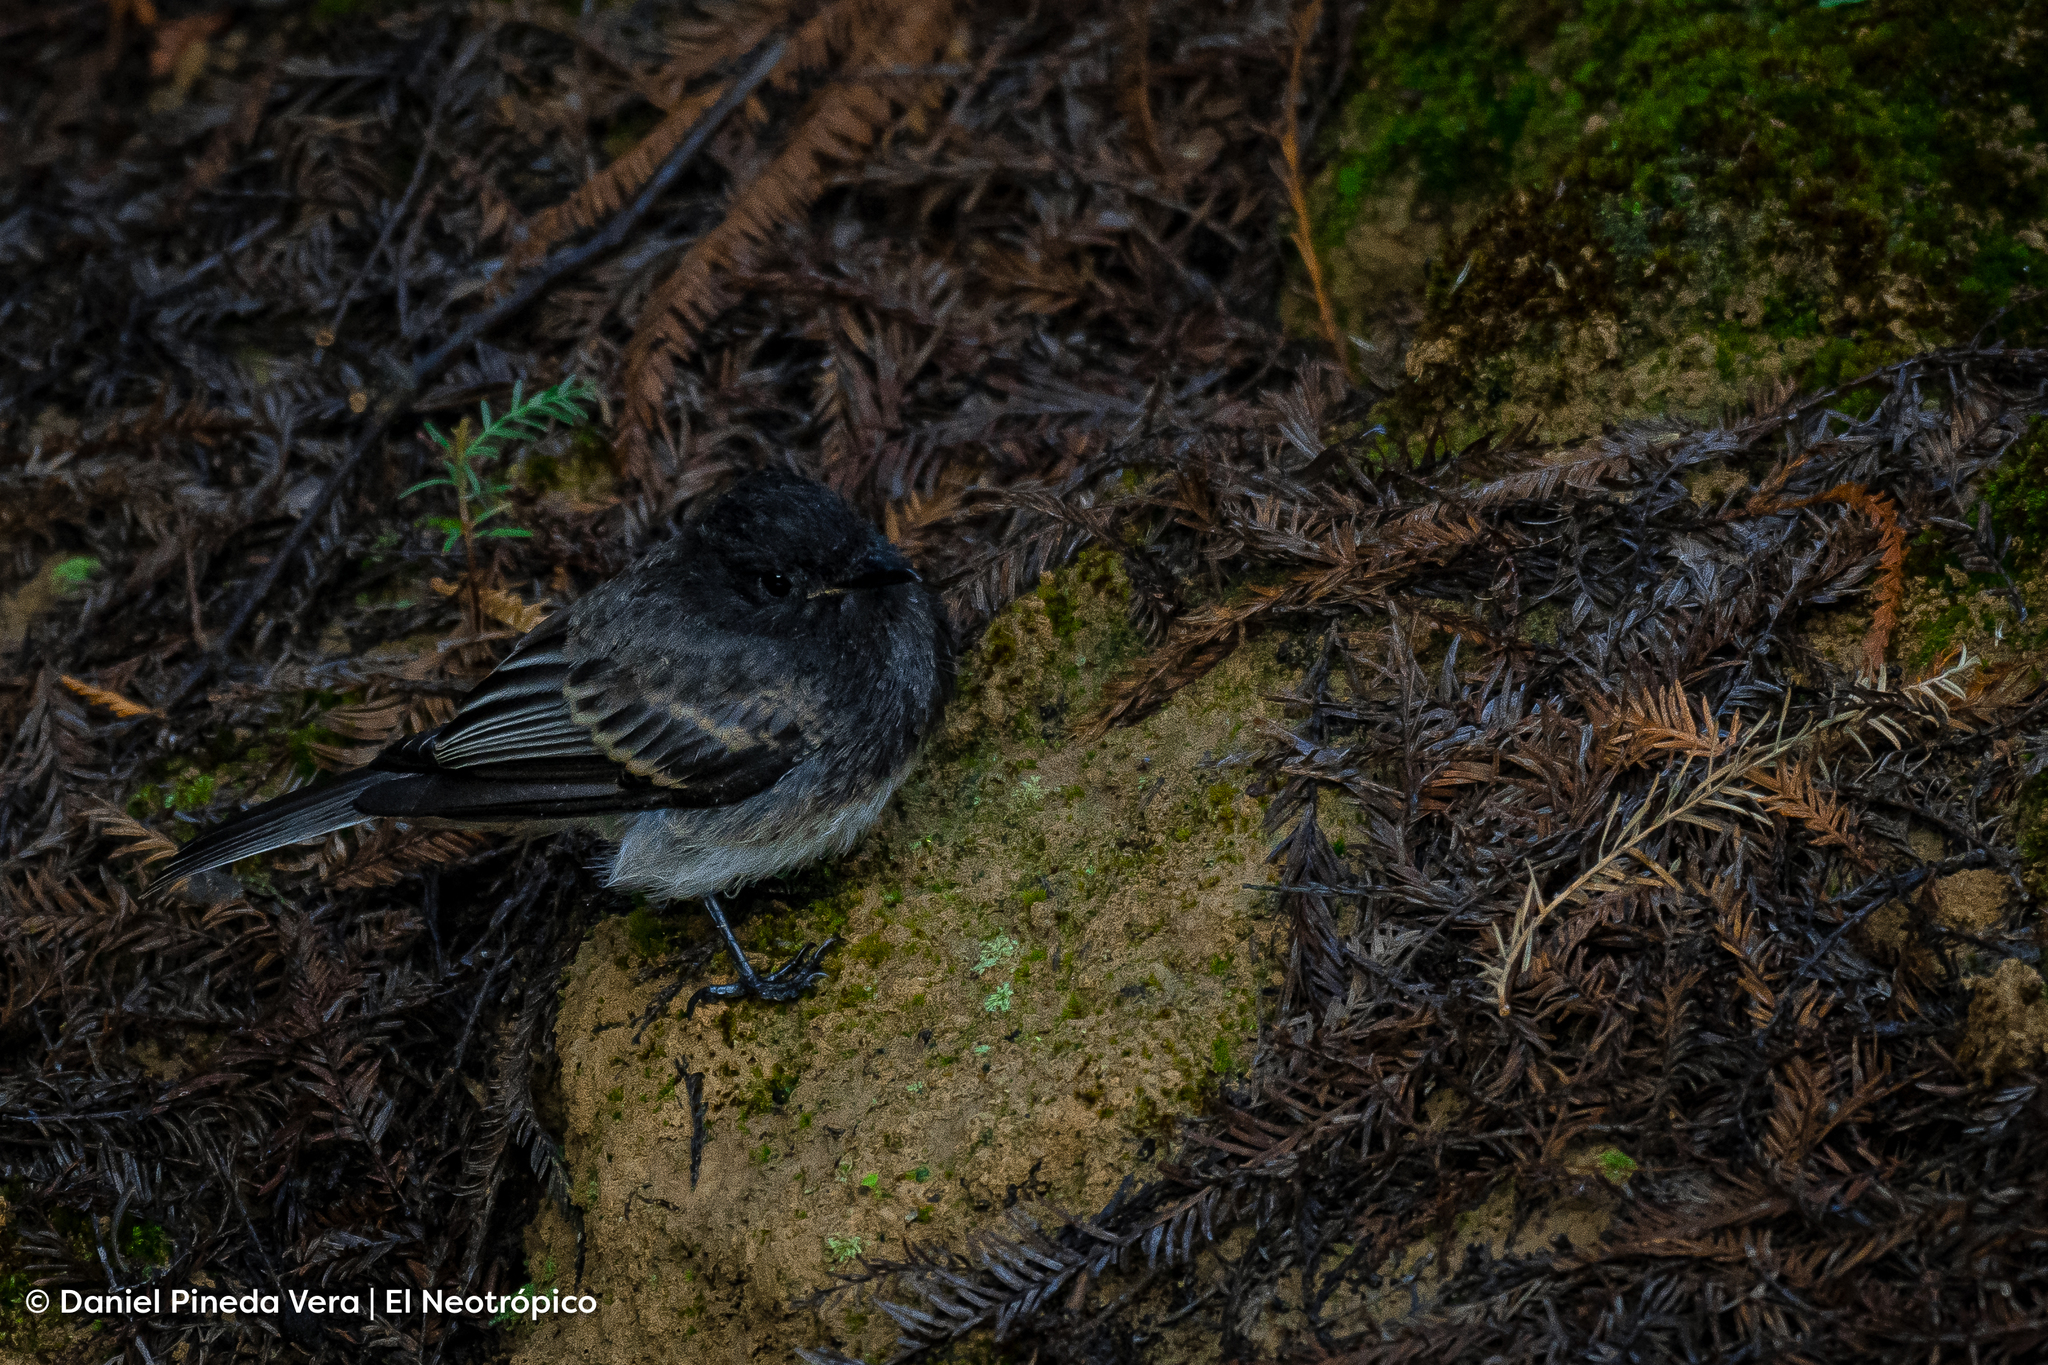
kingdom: Animalia
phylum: Chordata
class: Aves
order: Passeriformes
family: Tyrannidae
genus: Sayornis
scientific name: Sayornis nigricans
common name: Black phoebe
